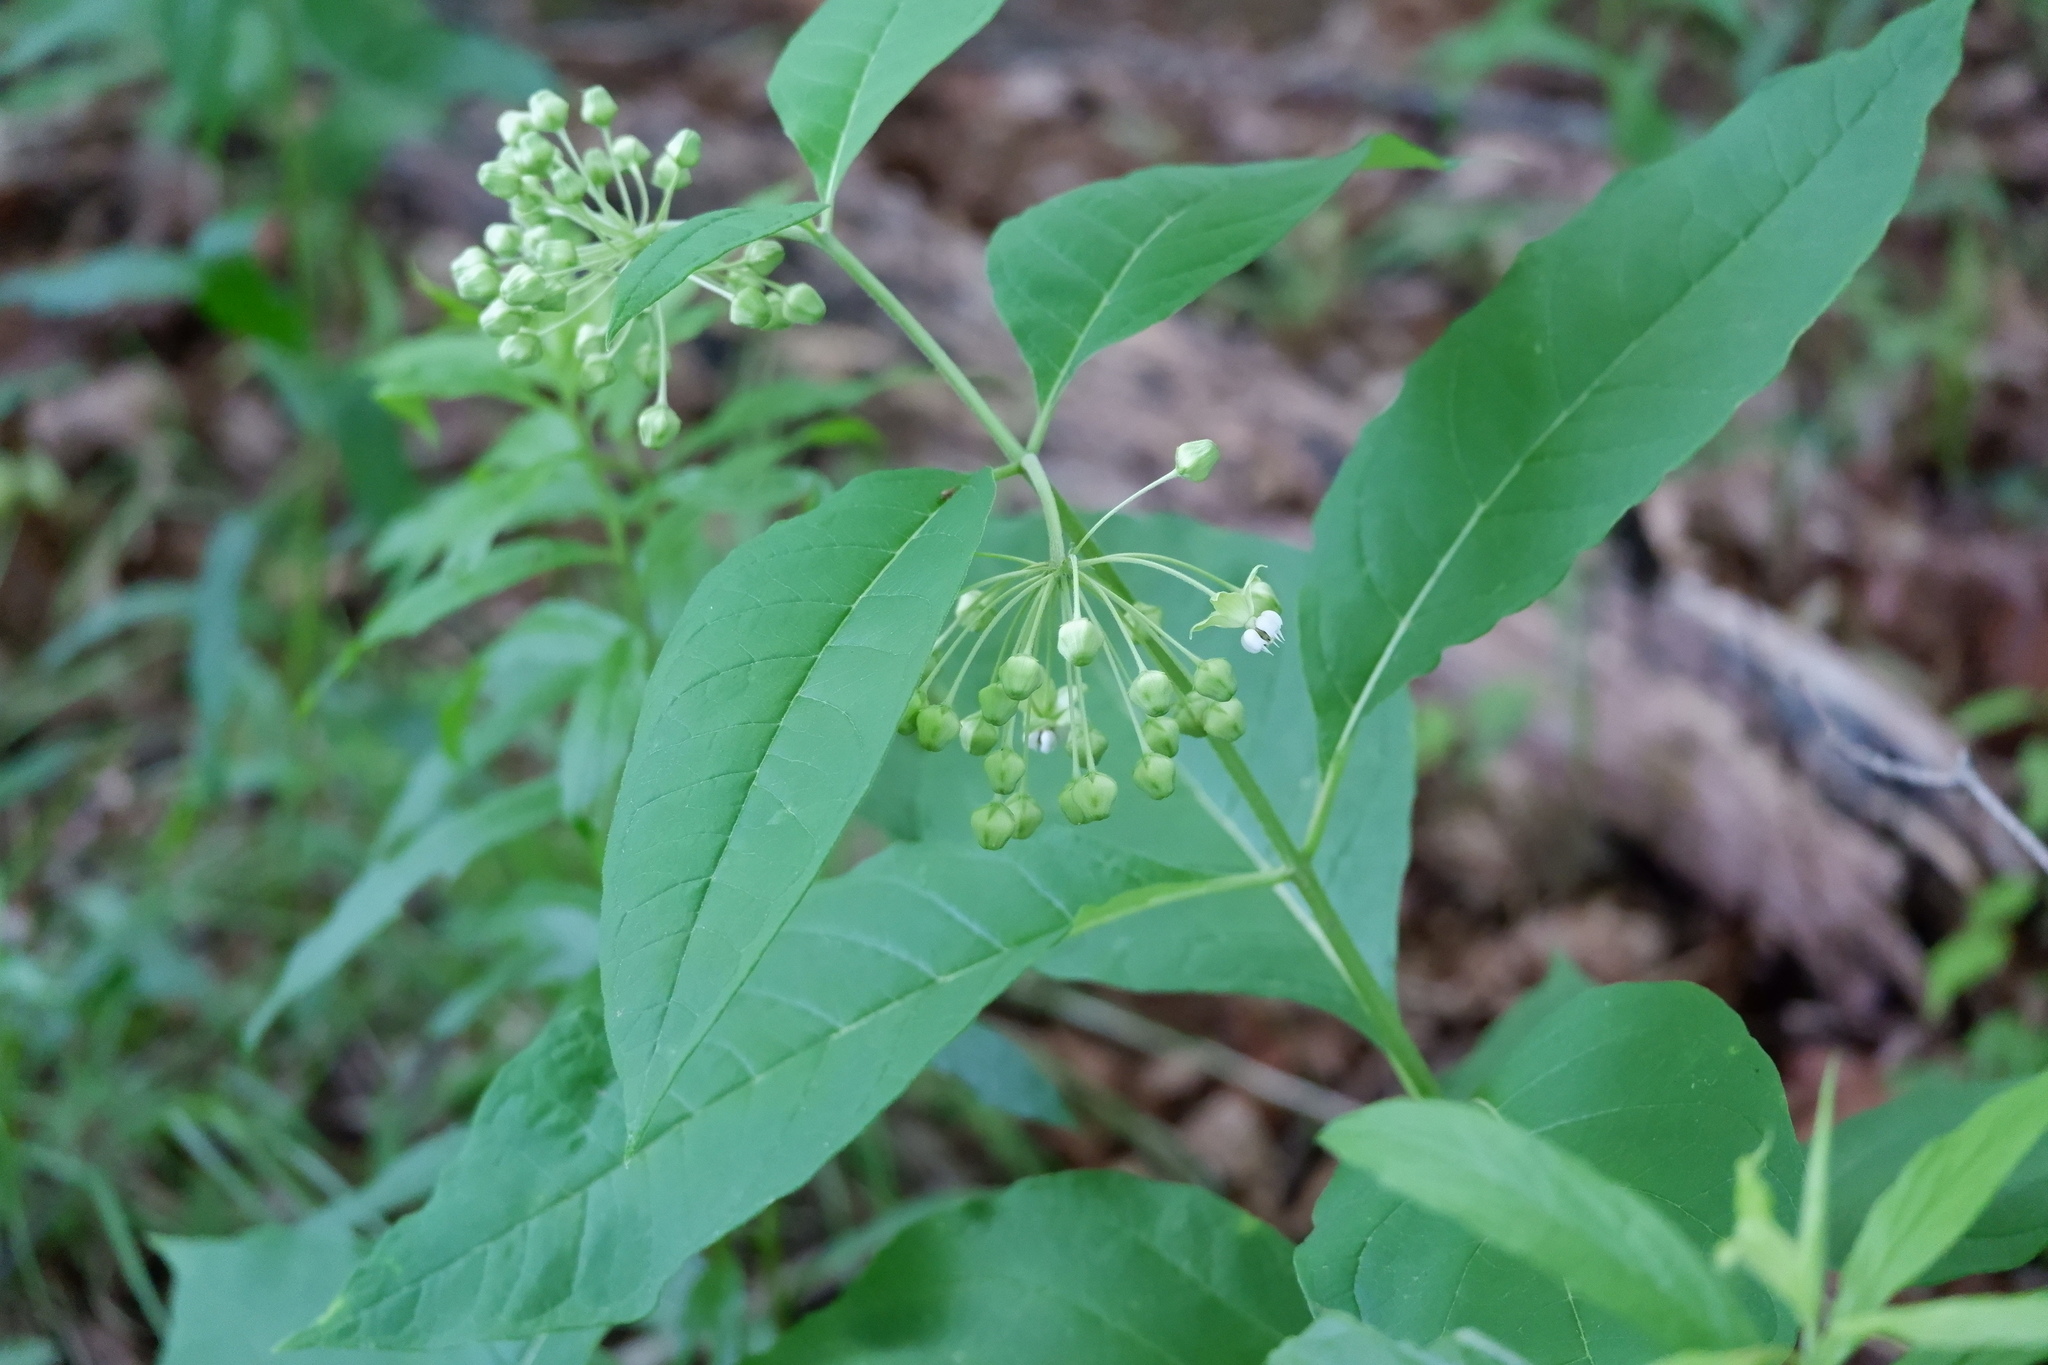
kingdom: Plantae
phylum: Tracheophyta
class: Magnoliopsida
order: Gentianales
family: Apocynaceae
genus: Asclepias
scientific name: Asclepias exaltata
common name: Poke milkweed
